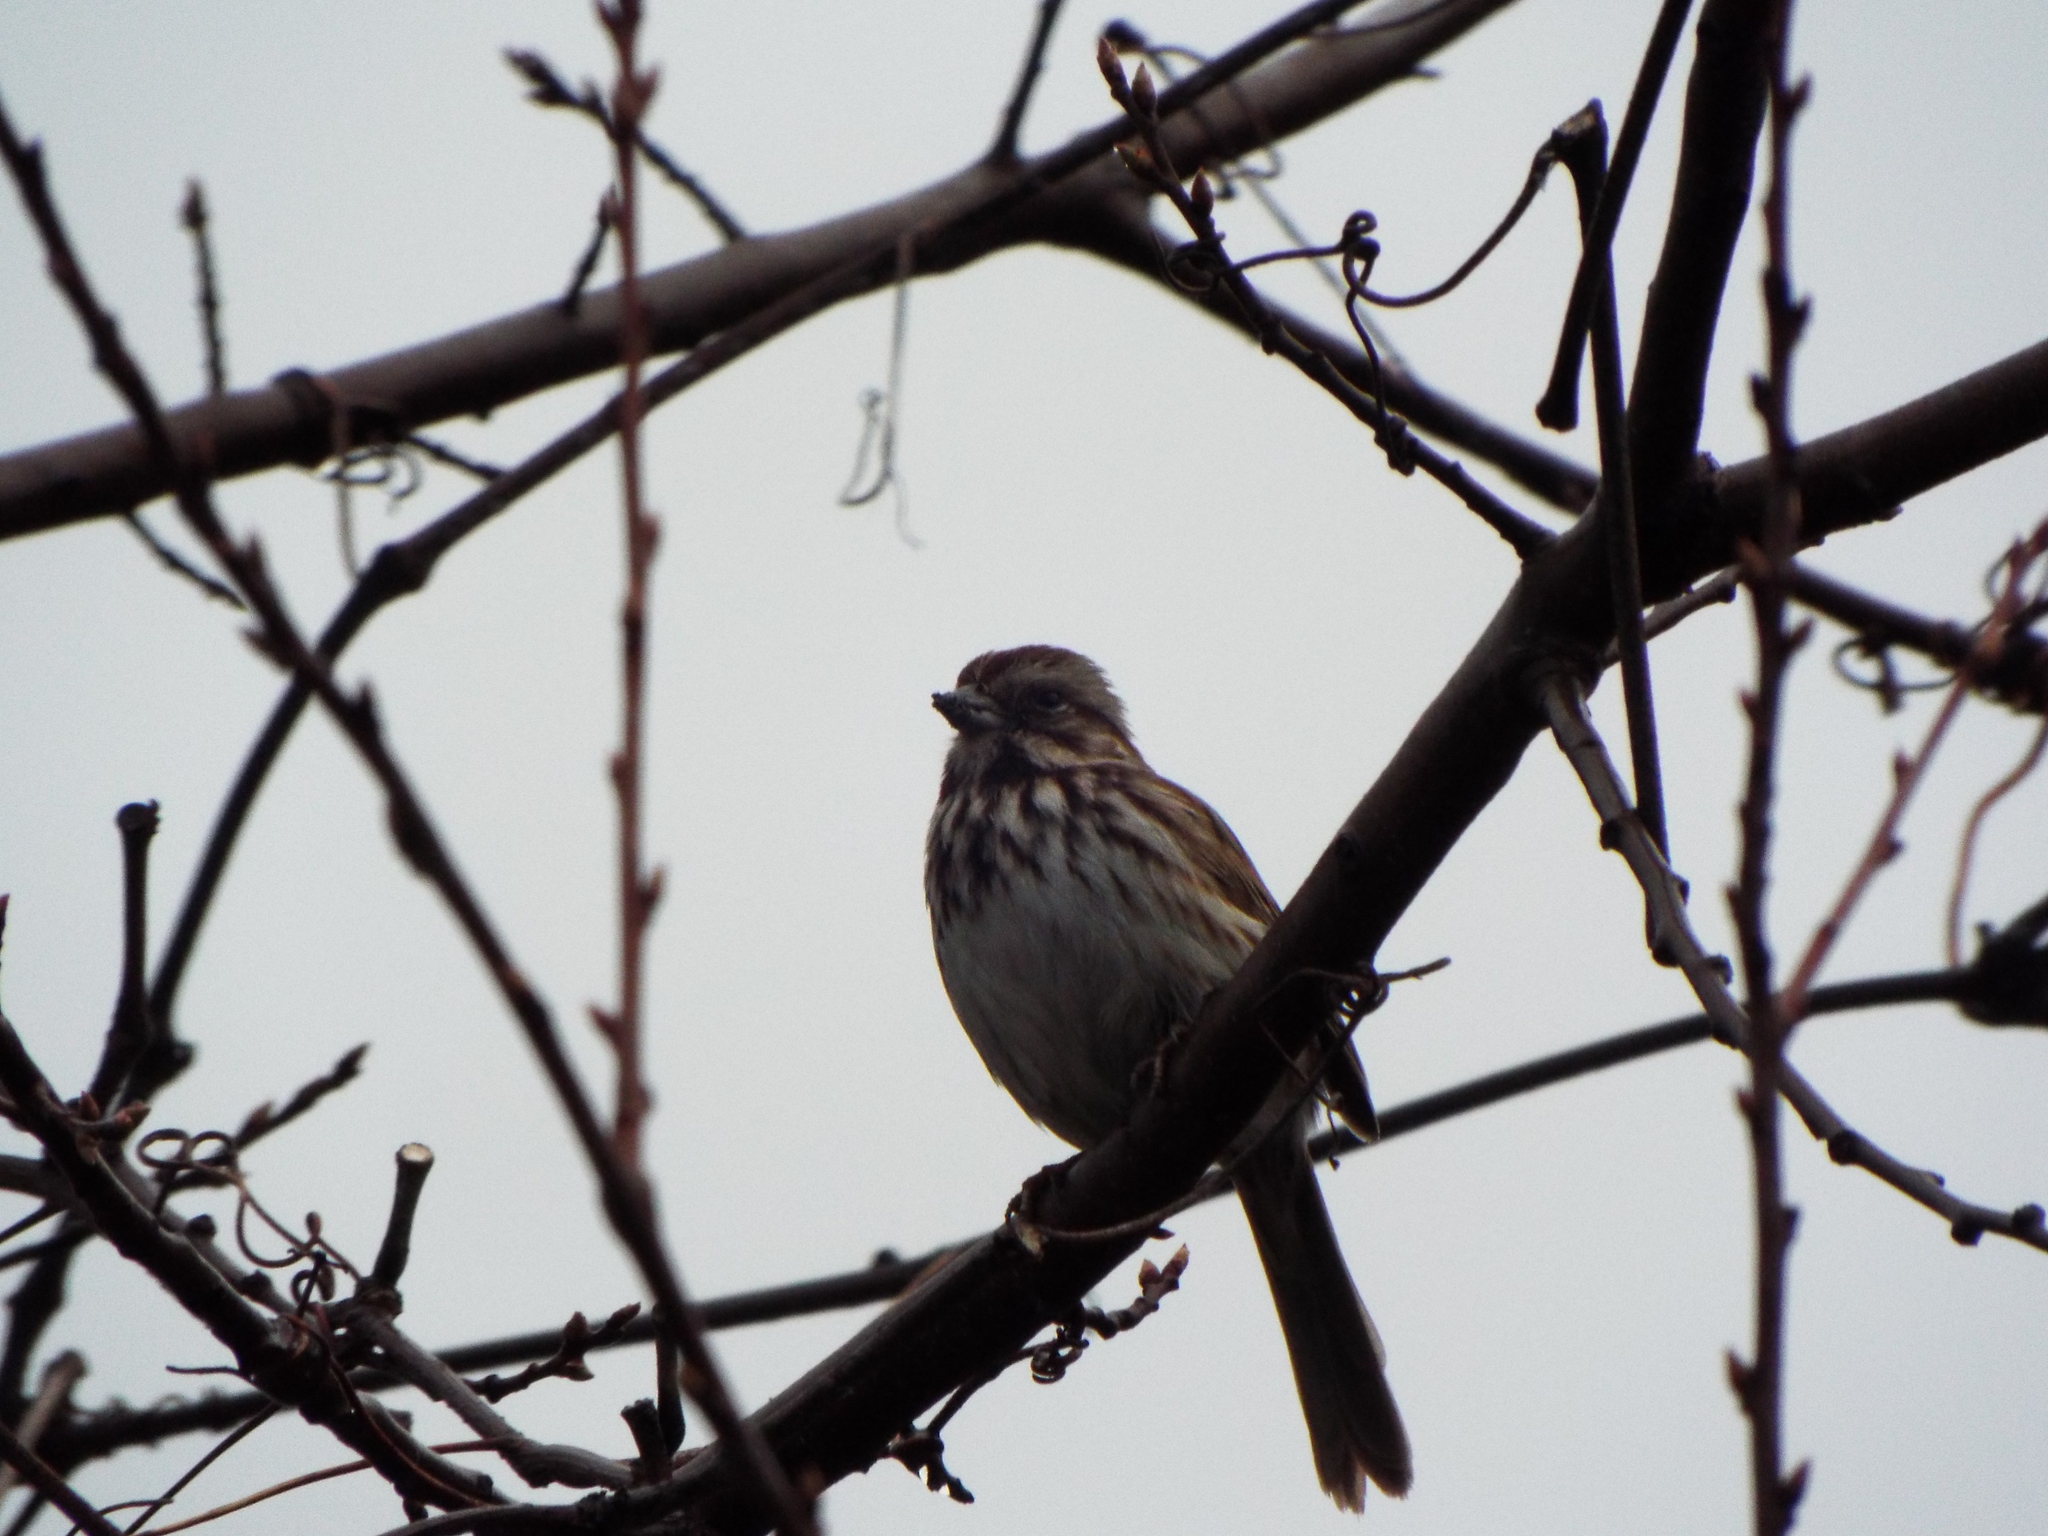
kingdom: Animalia
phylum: Chordata
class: Aves
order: Passeriformes
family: Passerellidae
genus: Melospiza
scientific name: Melospiza melodia
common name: Song sparrow
